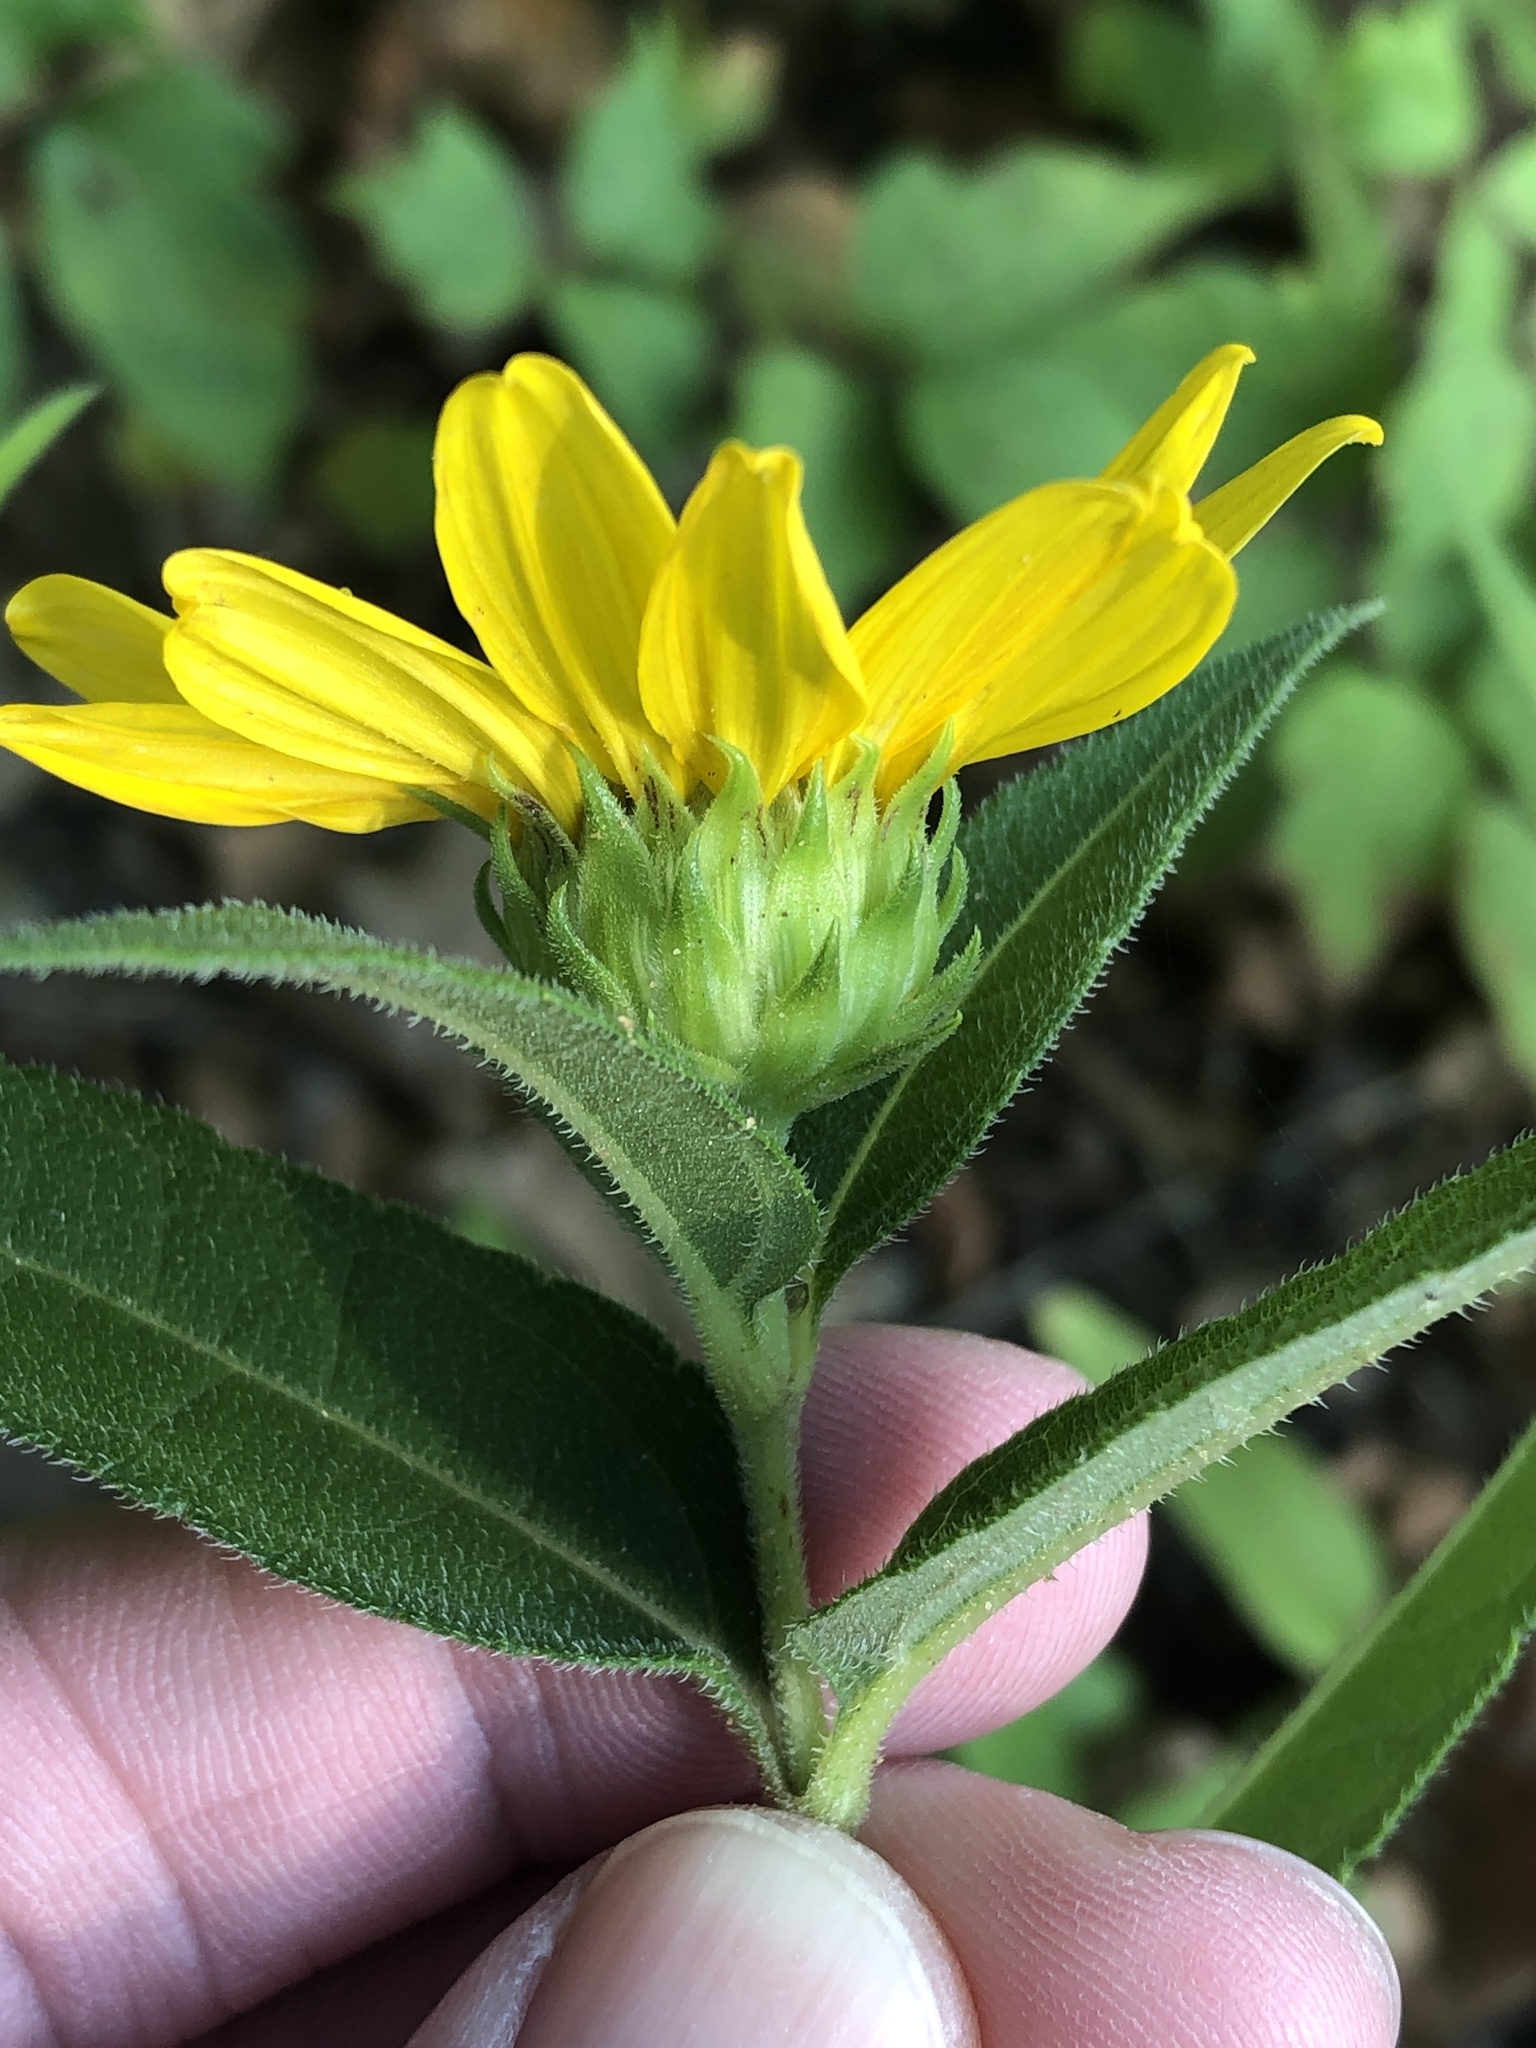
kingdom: Plantae
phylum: Tracheophyta
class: Magnoliopsida
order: Asterales
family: Asteraceae
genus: Helianthus
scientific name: Helianthus hirsutus
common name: Hairy sunflower
